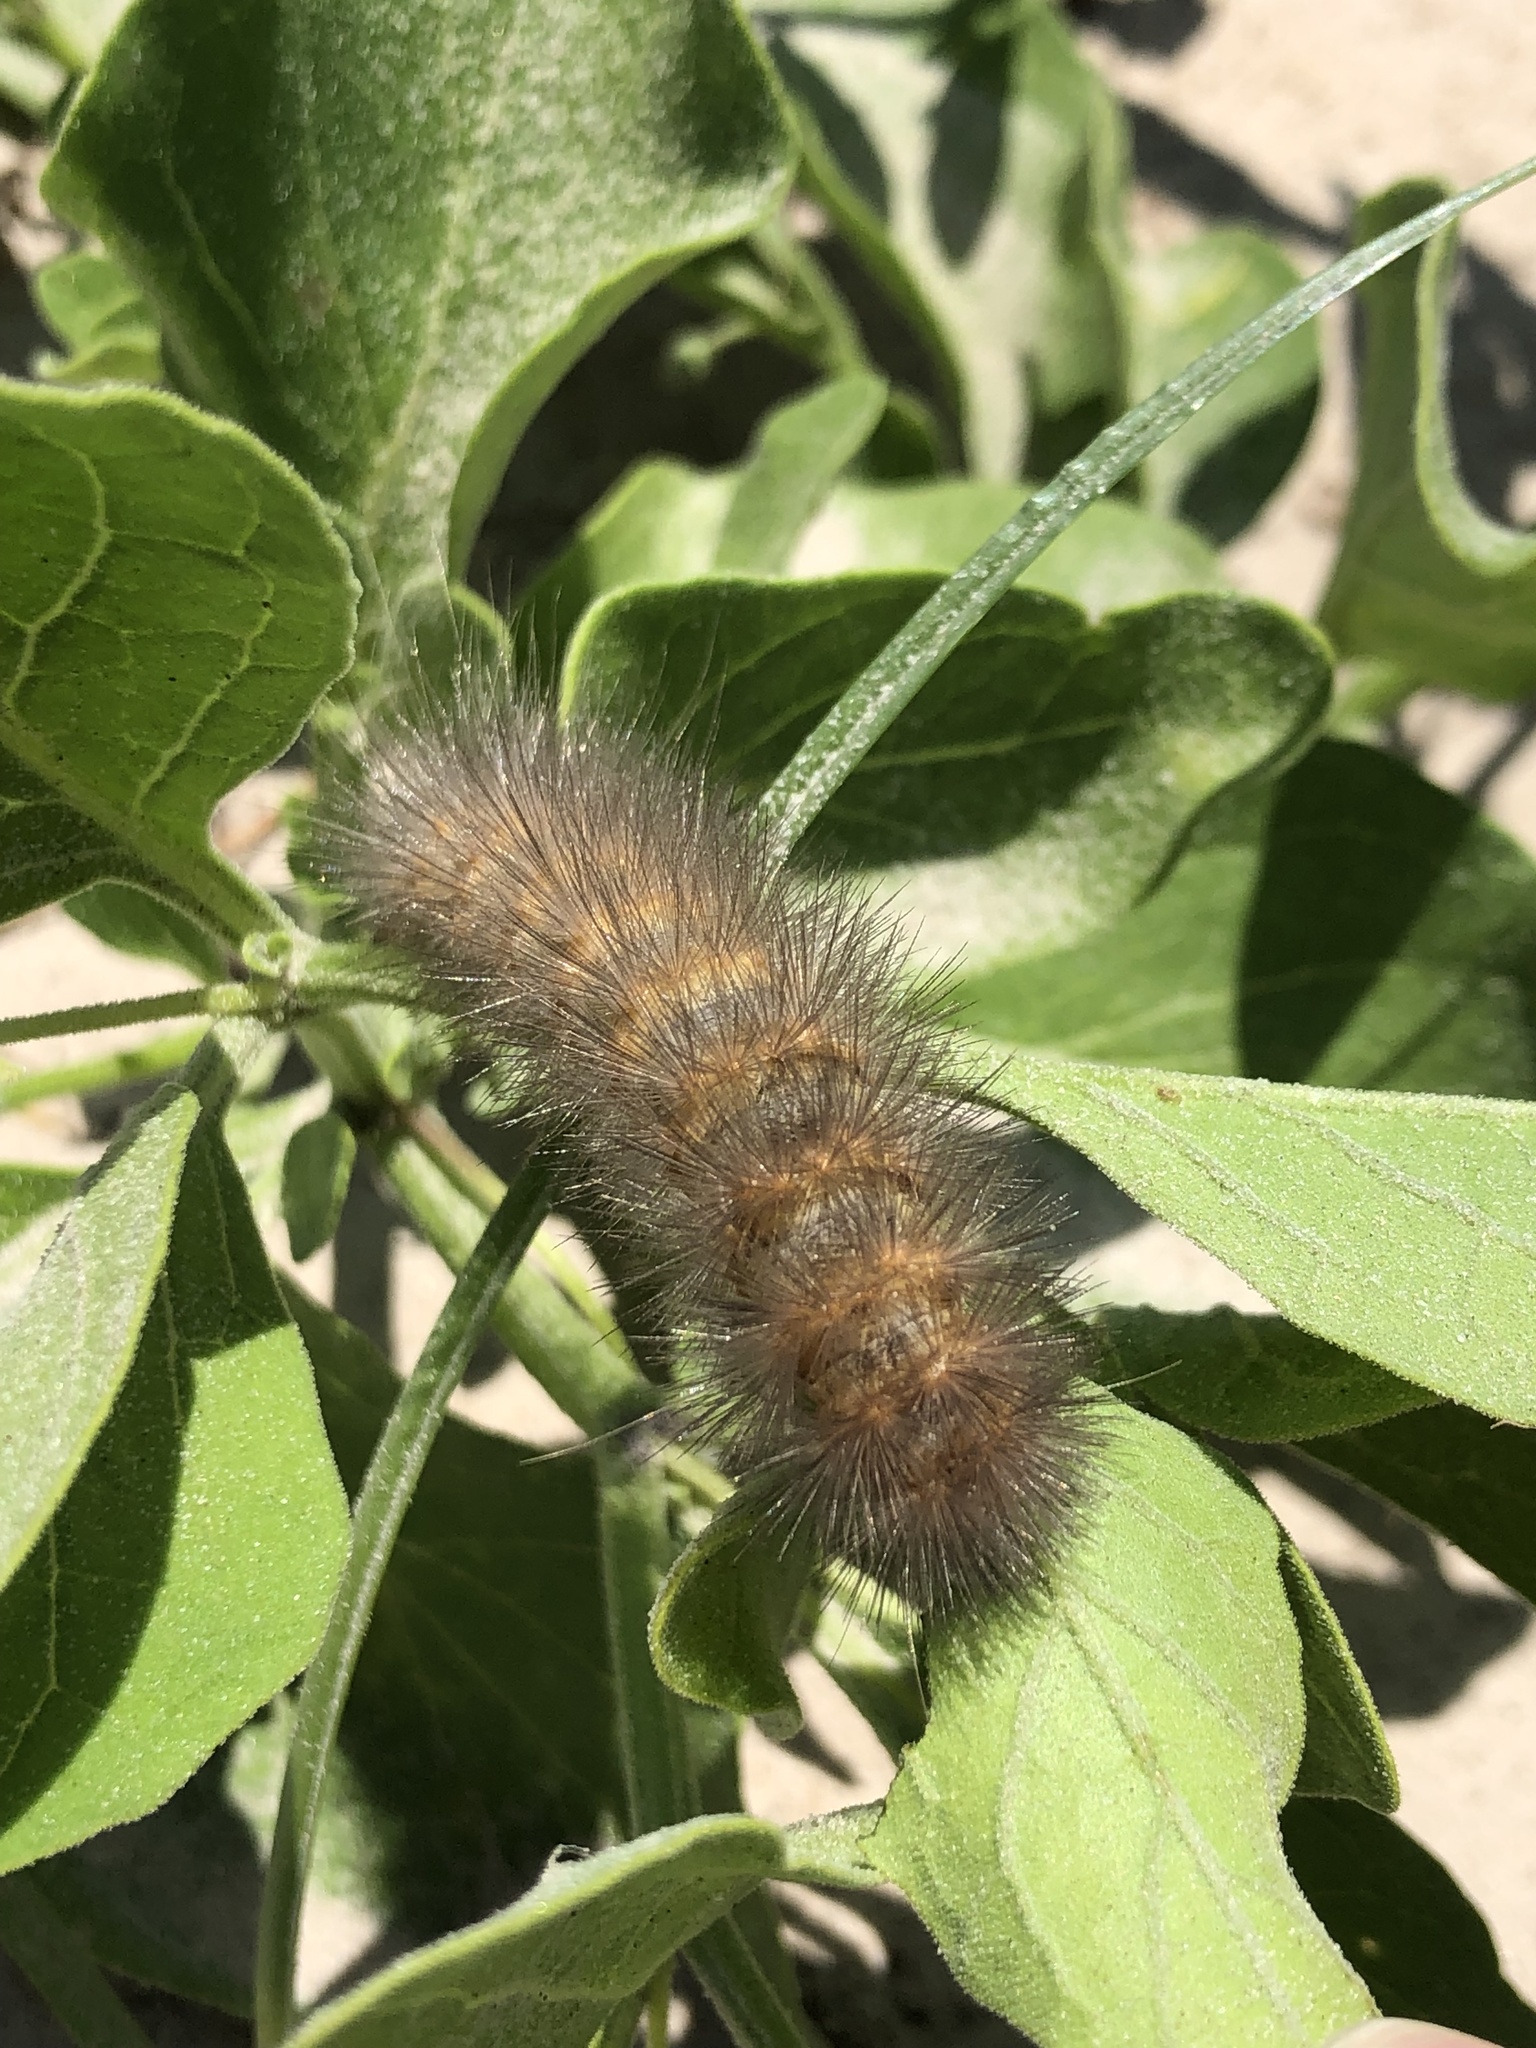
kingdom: Animalia
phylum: Arthropoda
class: Insecta
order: Lepidoptera
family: Erebidae
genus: Estigmene
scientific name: Estigmene acrea
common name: Salt marsh moth
